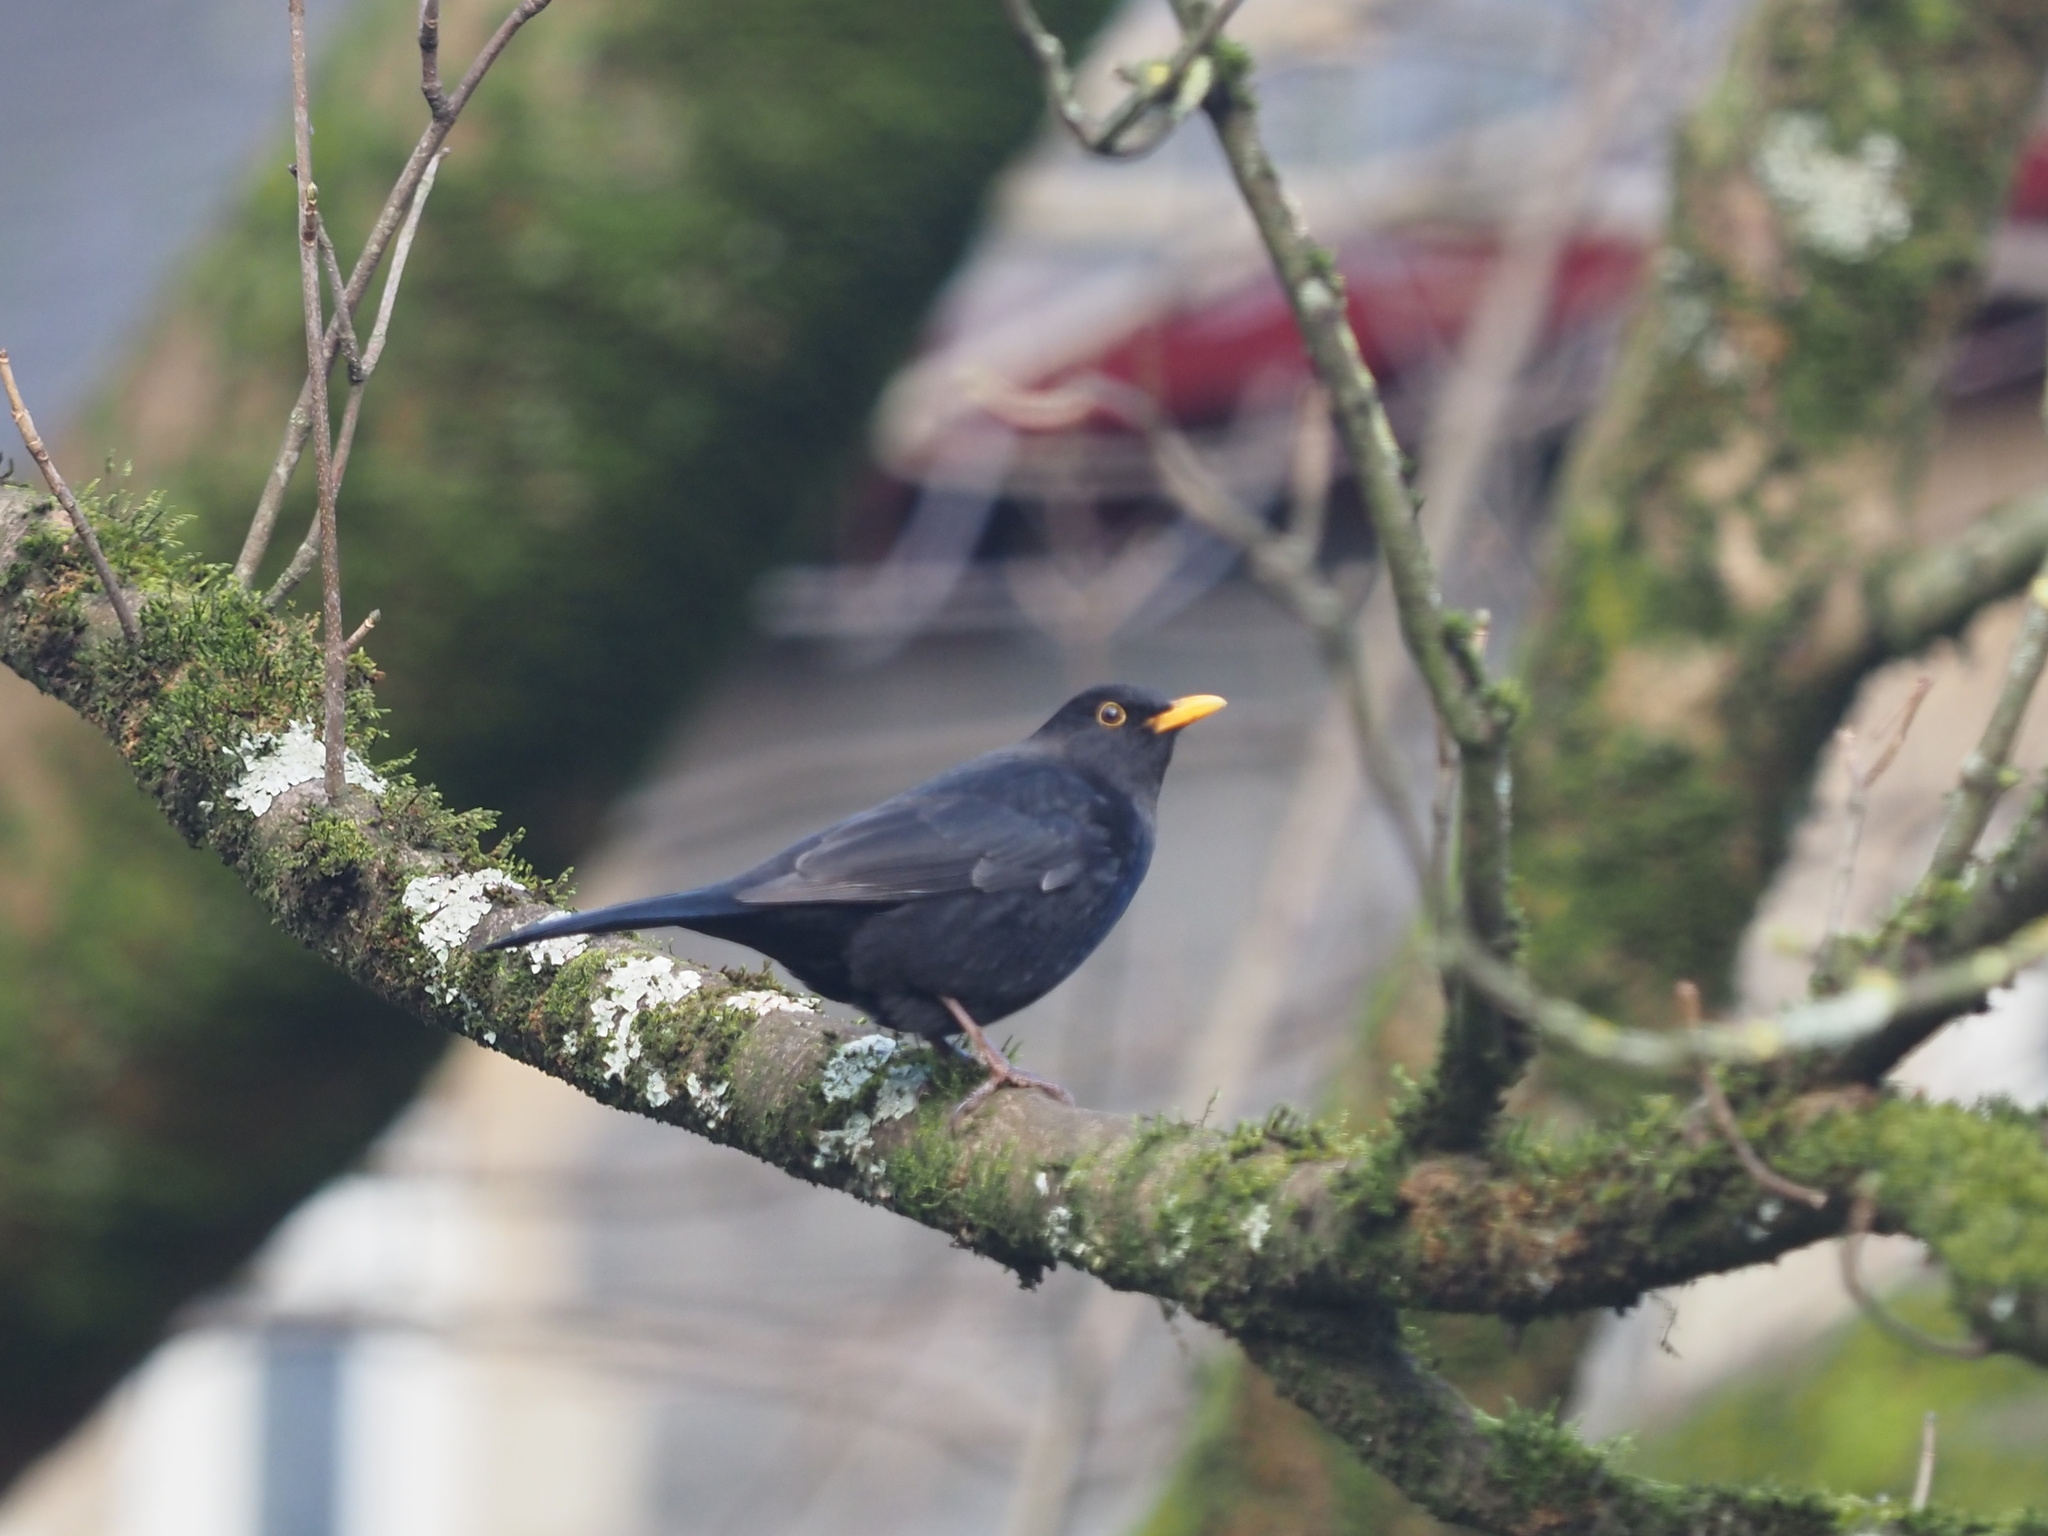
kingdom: Animalia
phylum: Chordata
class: Aves
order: Passeriformes
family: Turdidae
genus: Turdus
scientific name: Turdus merula
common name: Common blackbird
